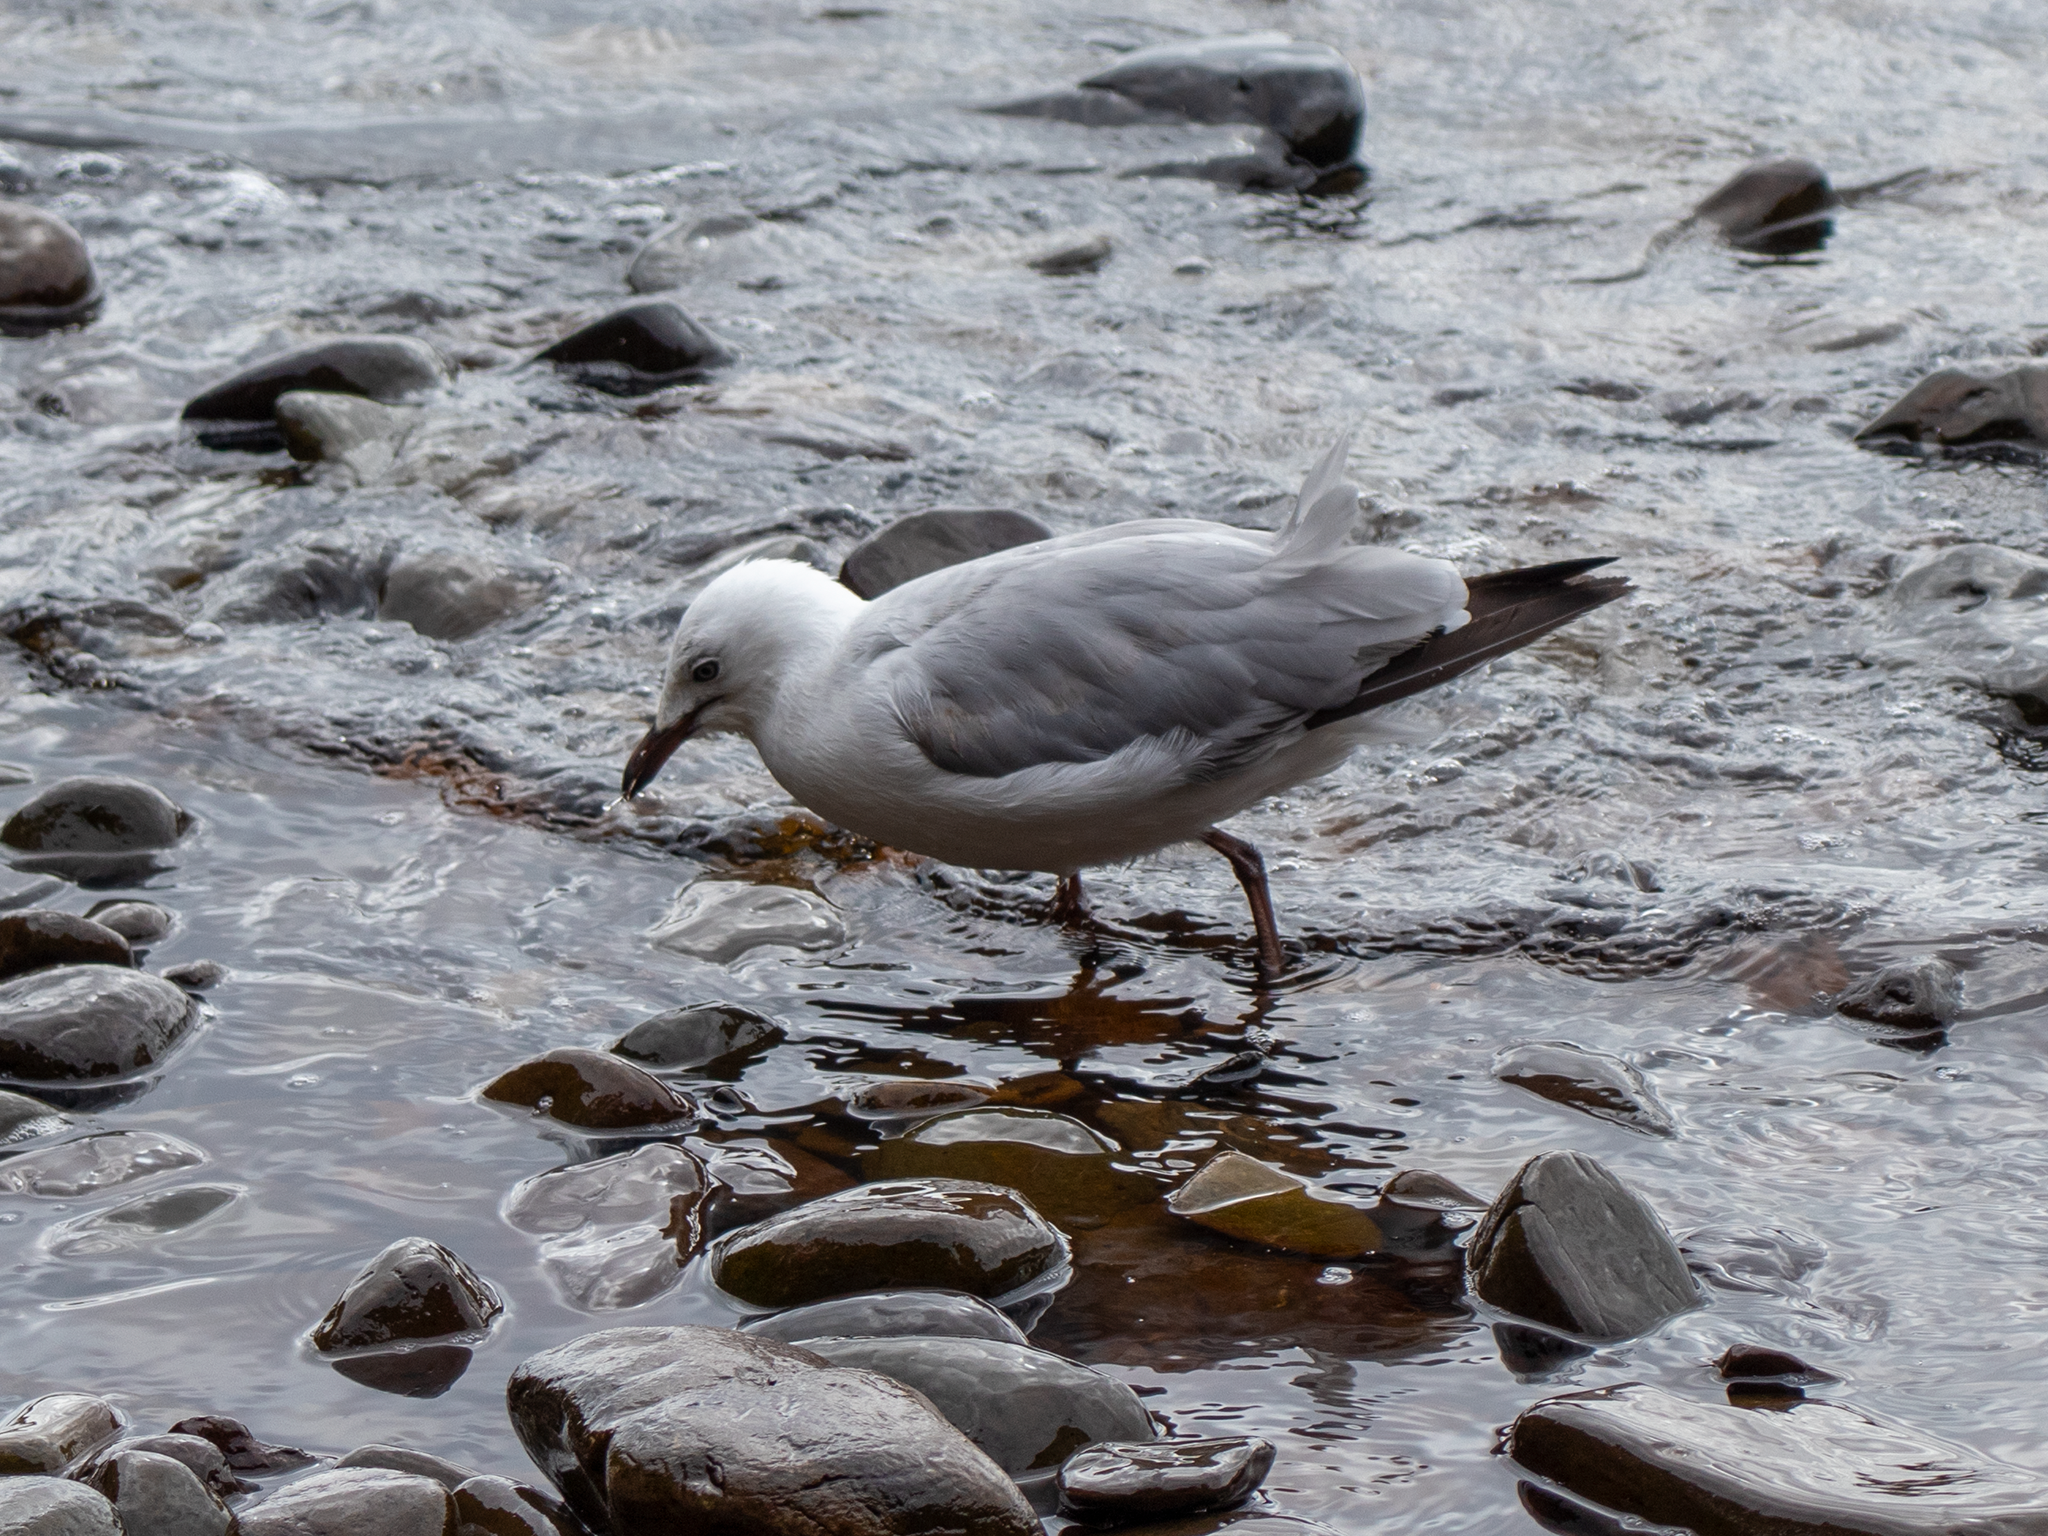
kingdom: Animalia
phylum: Chordata
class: Aves
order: Charadriiformes
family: Laridae
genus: Chroicocephalus
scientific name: Chroicocephalus novaehollandiae
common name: Silver gull
